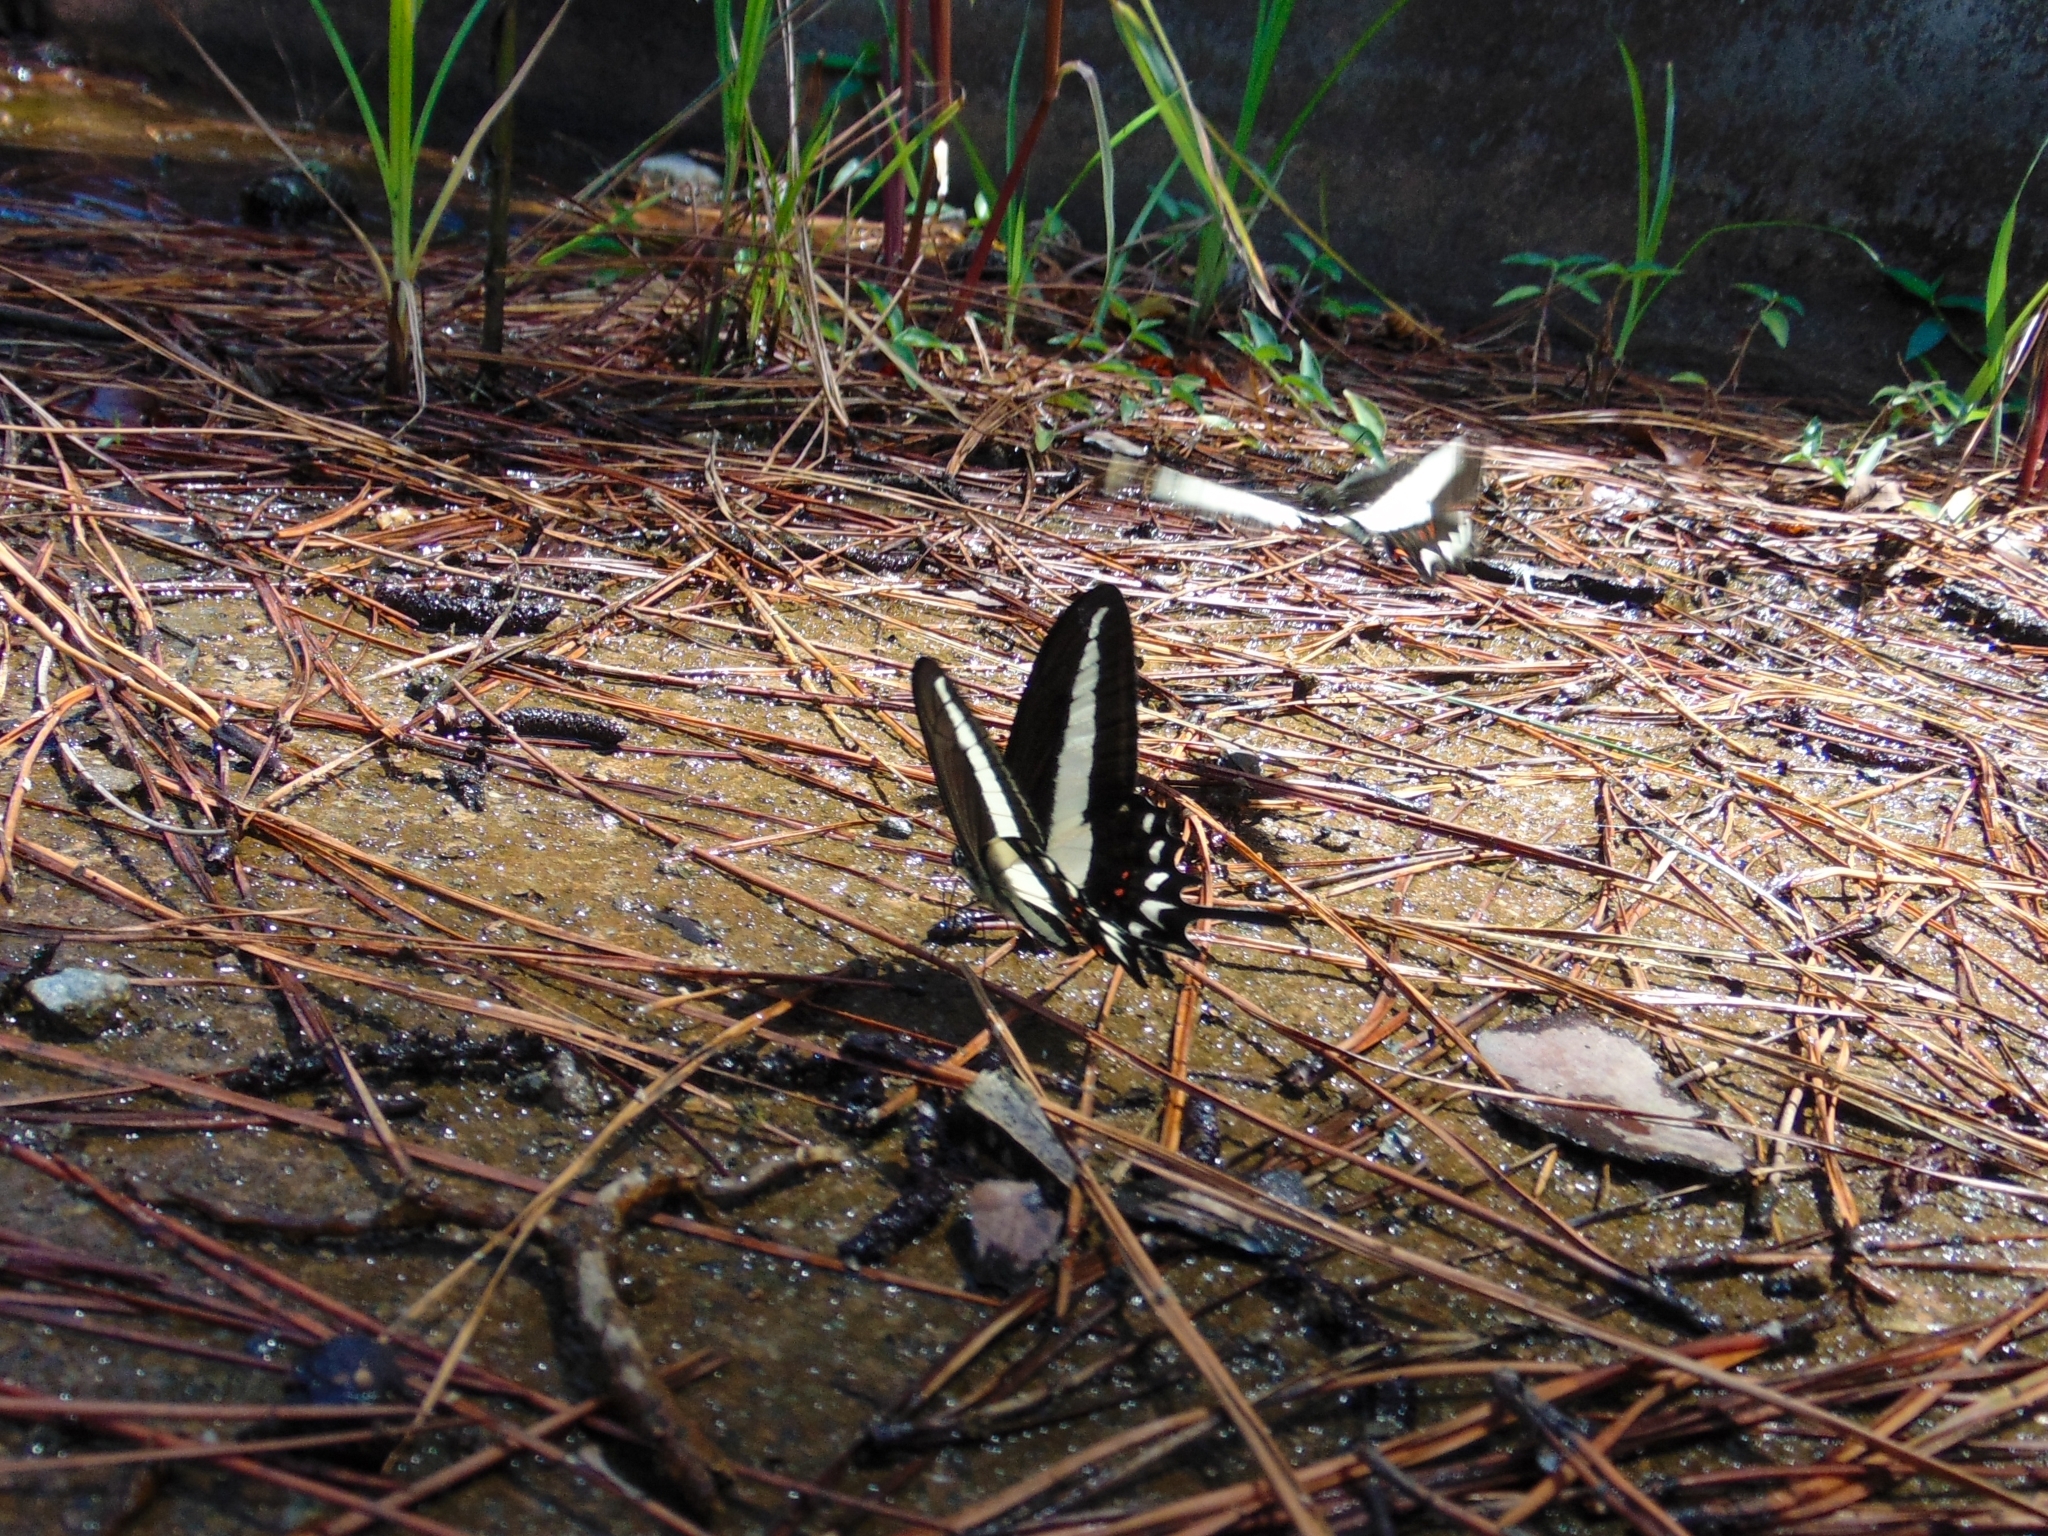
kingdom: Animalia
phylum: Arthropoda
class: Insecta
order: Lepidoptera
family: Papilionidae
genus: Heraclides
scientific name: Heraclides hectorides
